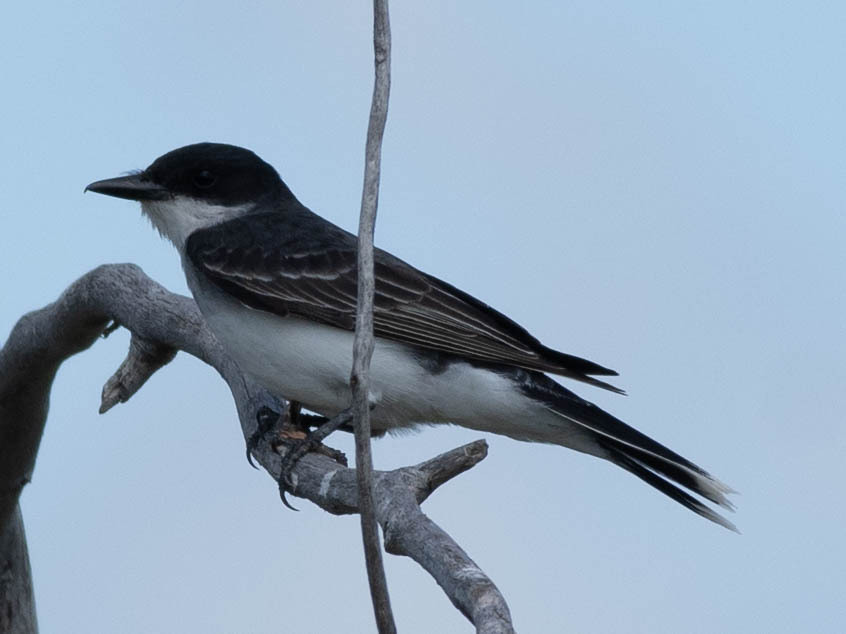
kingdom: Animalia
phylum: Chordata
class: Aves
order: Passeriformes
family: Tyrannidae
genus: Tyrannus
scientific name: Tyrannus tyrannus
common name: Eastern kingbird
